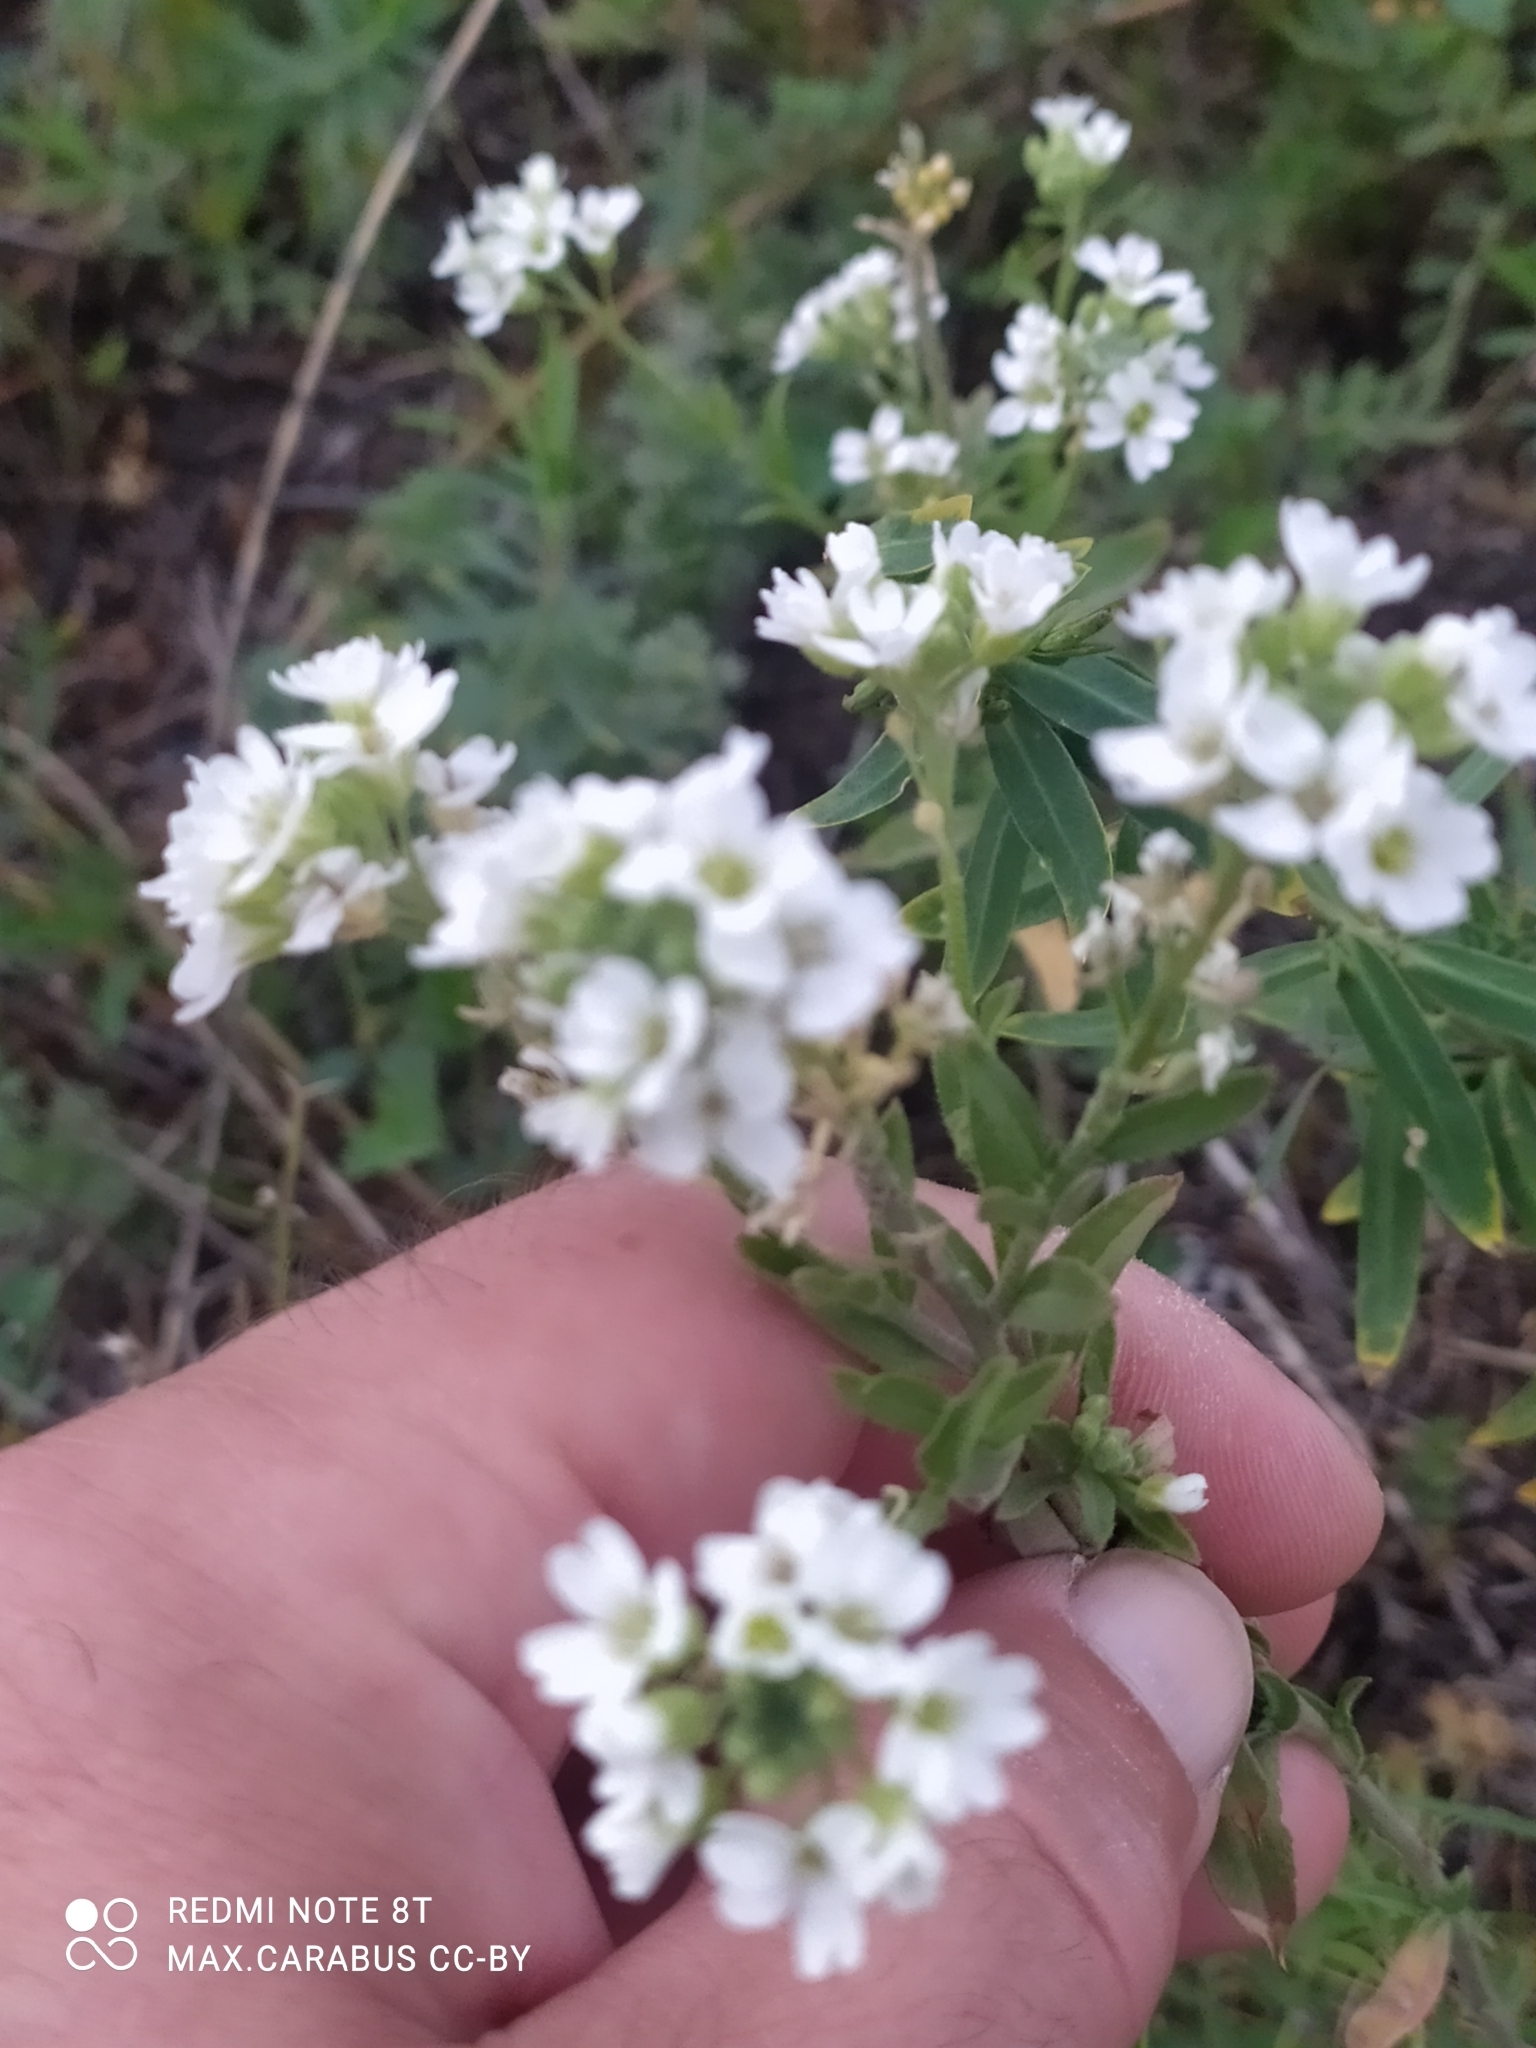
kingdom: Plantae
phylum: Tracheophyta
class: Magnoliopsida
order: Brassicales
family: Brassicaceae
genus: Berteroa
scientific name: Berteroa incana
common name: Hoary alison
